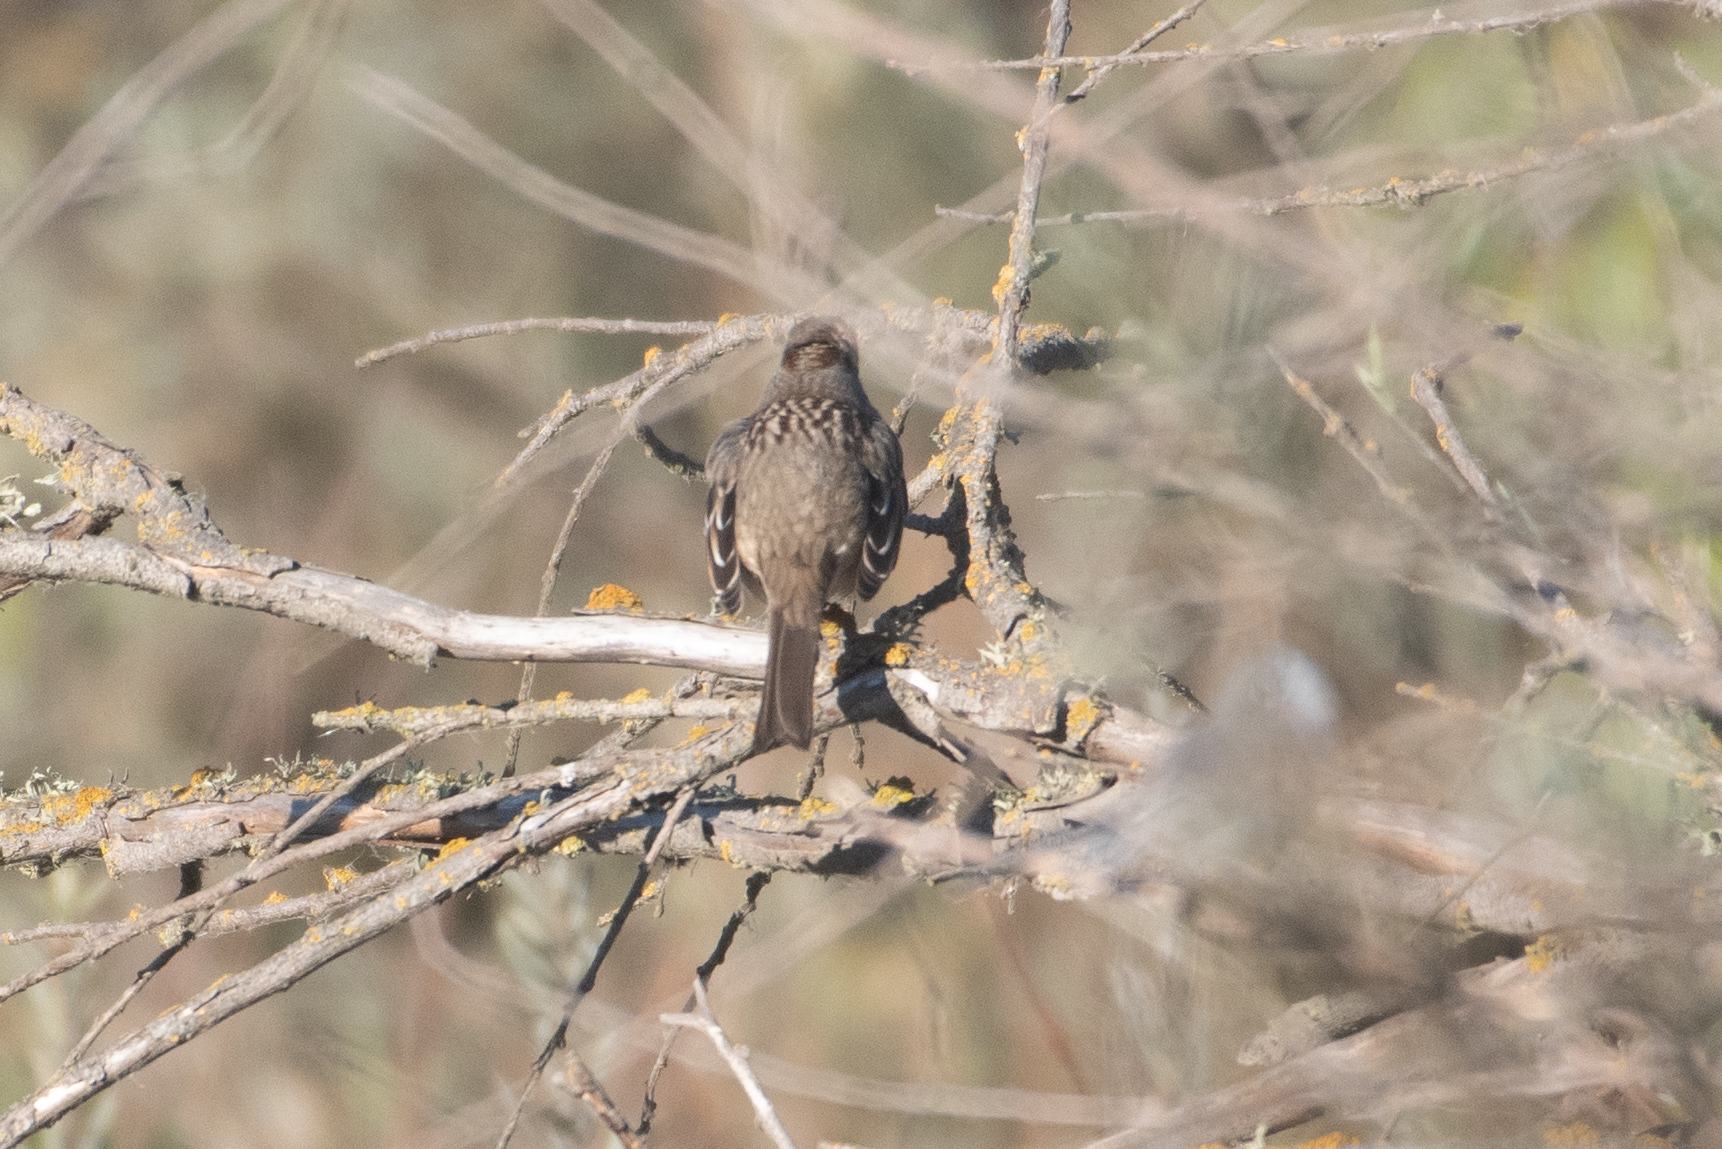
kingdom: Animalia
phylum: Chordata
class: Aves
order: Passeriformes
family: Passerellidae
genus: Zonotrichia
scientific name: Zonotrichia leucophrys
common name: White-crowned sparrow
